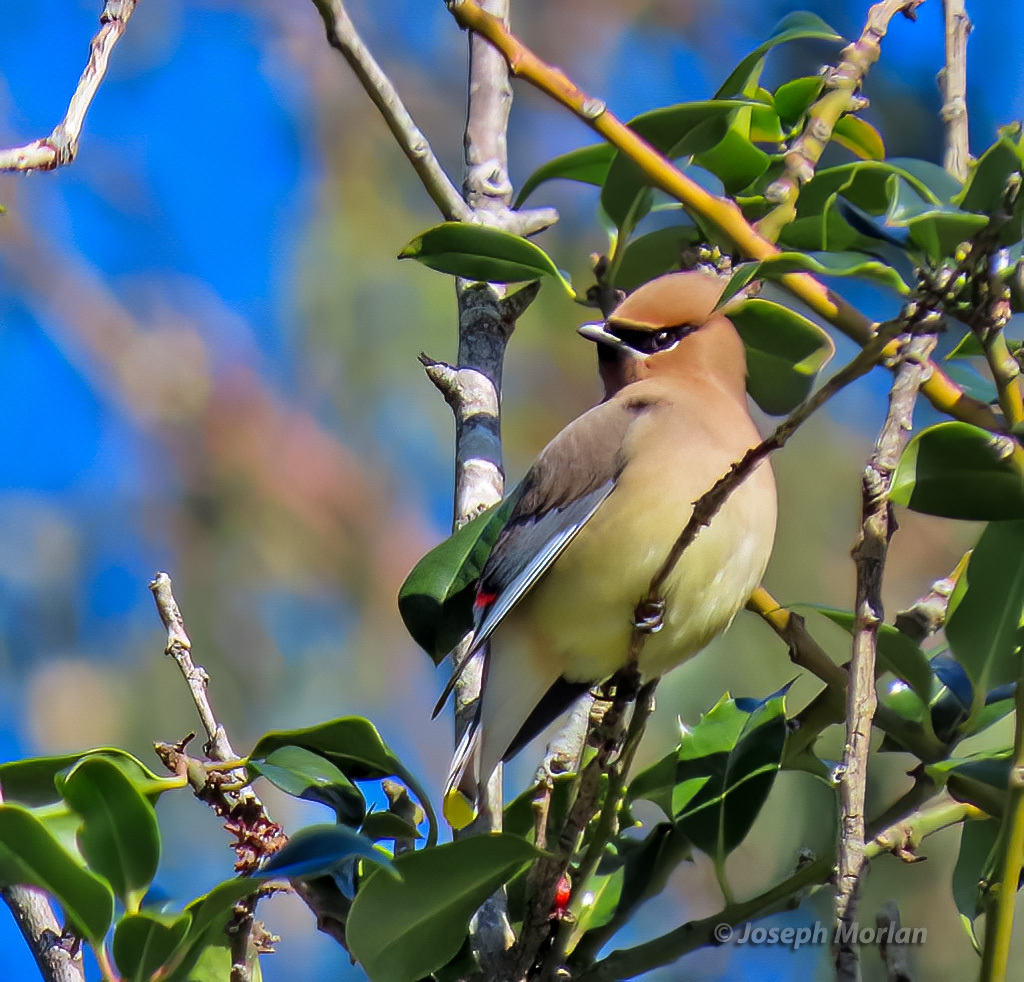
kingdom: Animalia
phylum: Chordata
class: Aves
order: Passeriformes
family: Bombycillidae
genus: Bombycilla
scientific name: Bombycilla cedrorum
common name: Cedar waxwing
